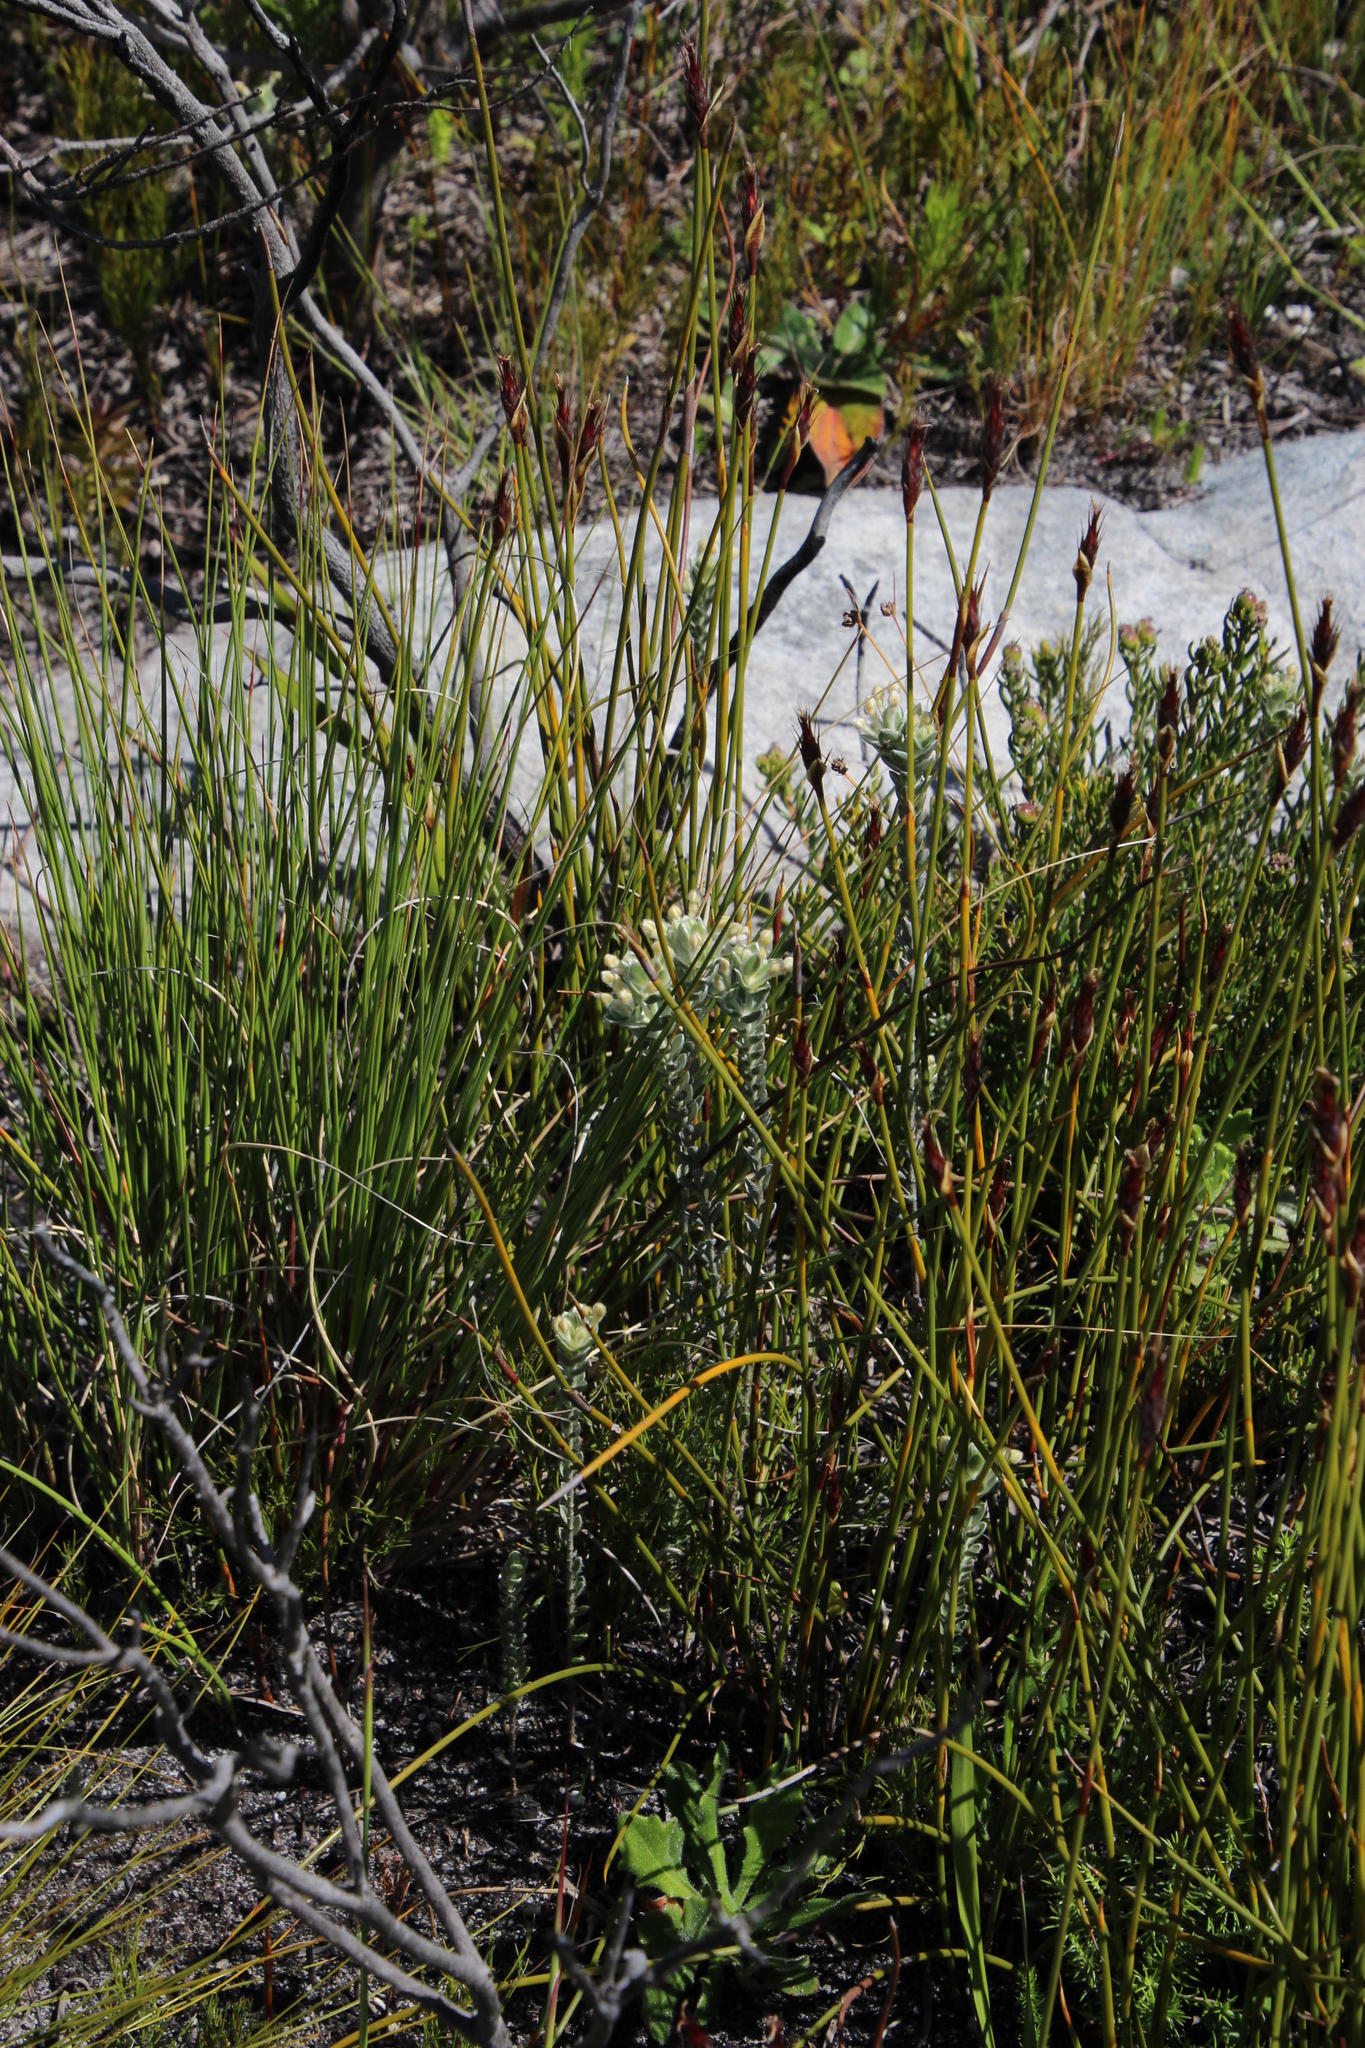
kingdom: Plantae
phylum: Tracheophyta
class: Magnoliopsida
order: Malvales
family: Thymelaeaceae
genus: Gnidia
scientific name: Gnidia imbricata
